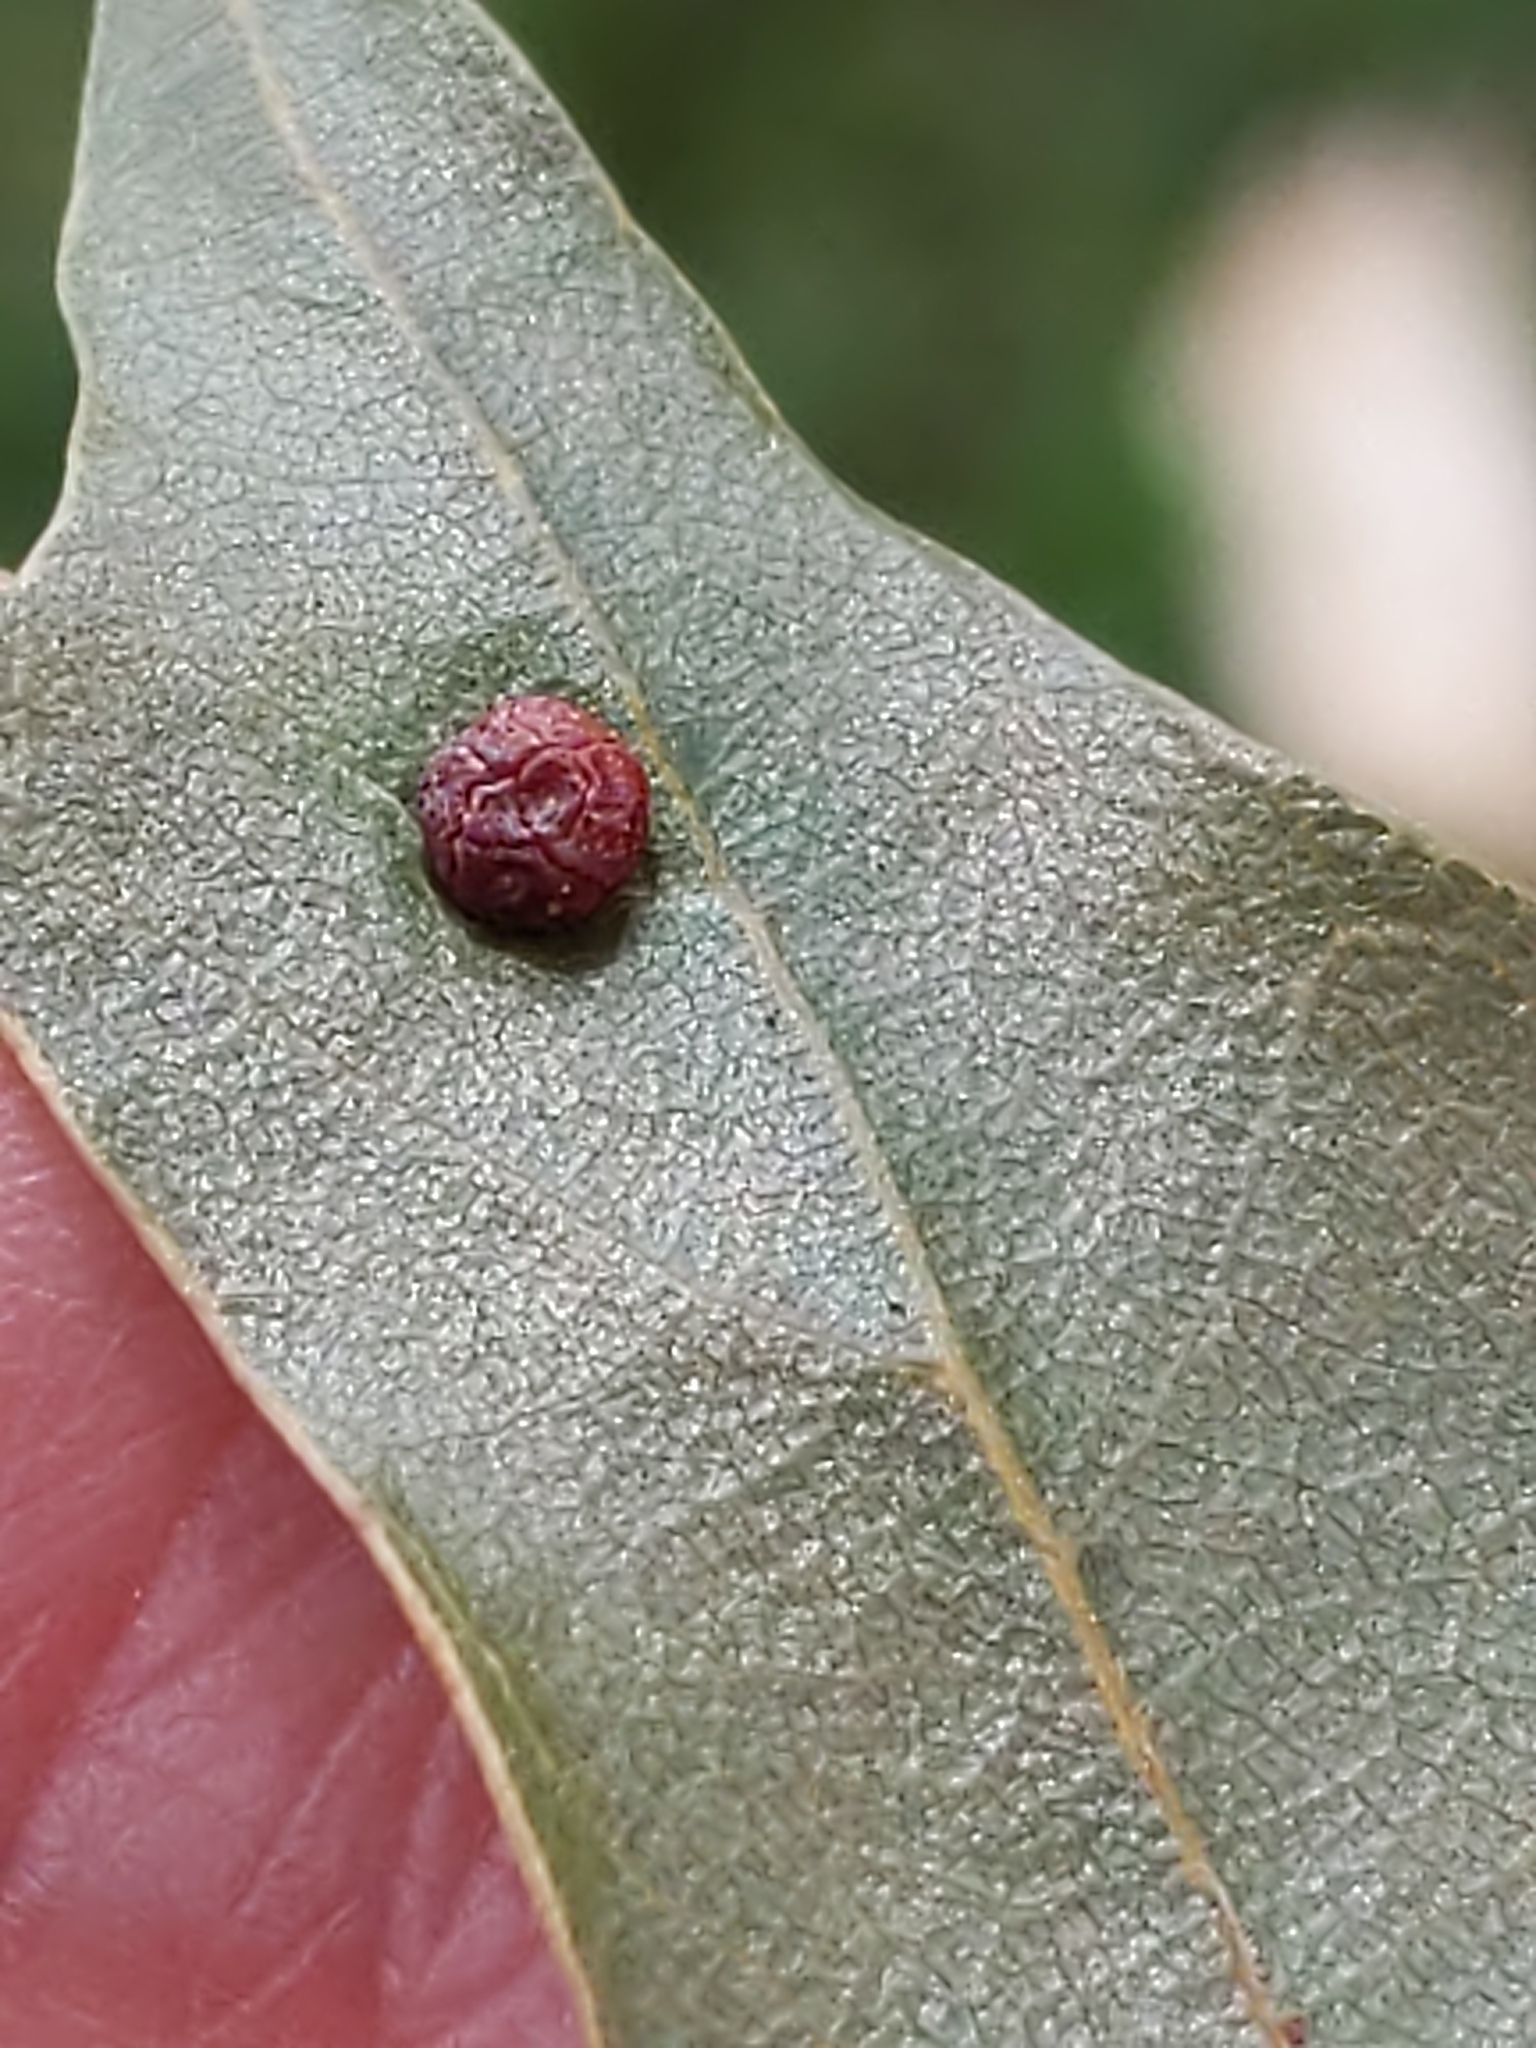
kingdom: Animalia
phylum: Arthropoda
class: Insecta
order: Diptera
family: Cecidomyiidae
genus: Polystepha
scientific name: Polystepha pilulae
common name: Oak leaf gall midge
